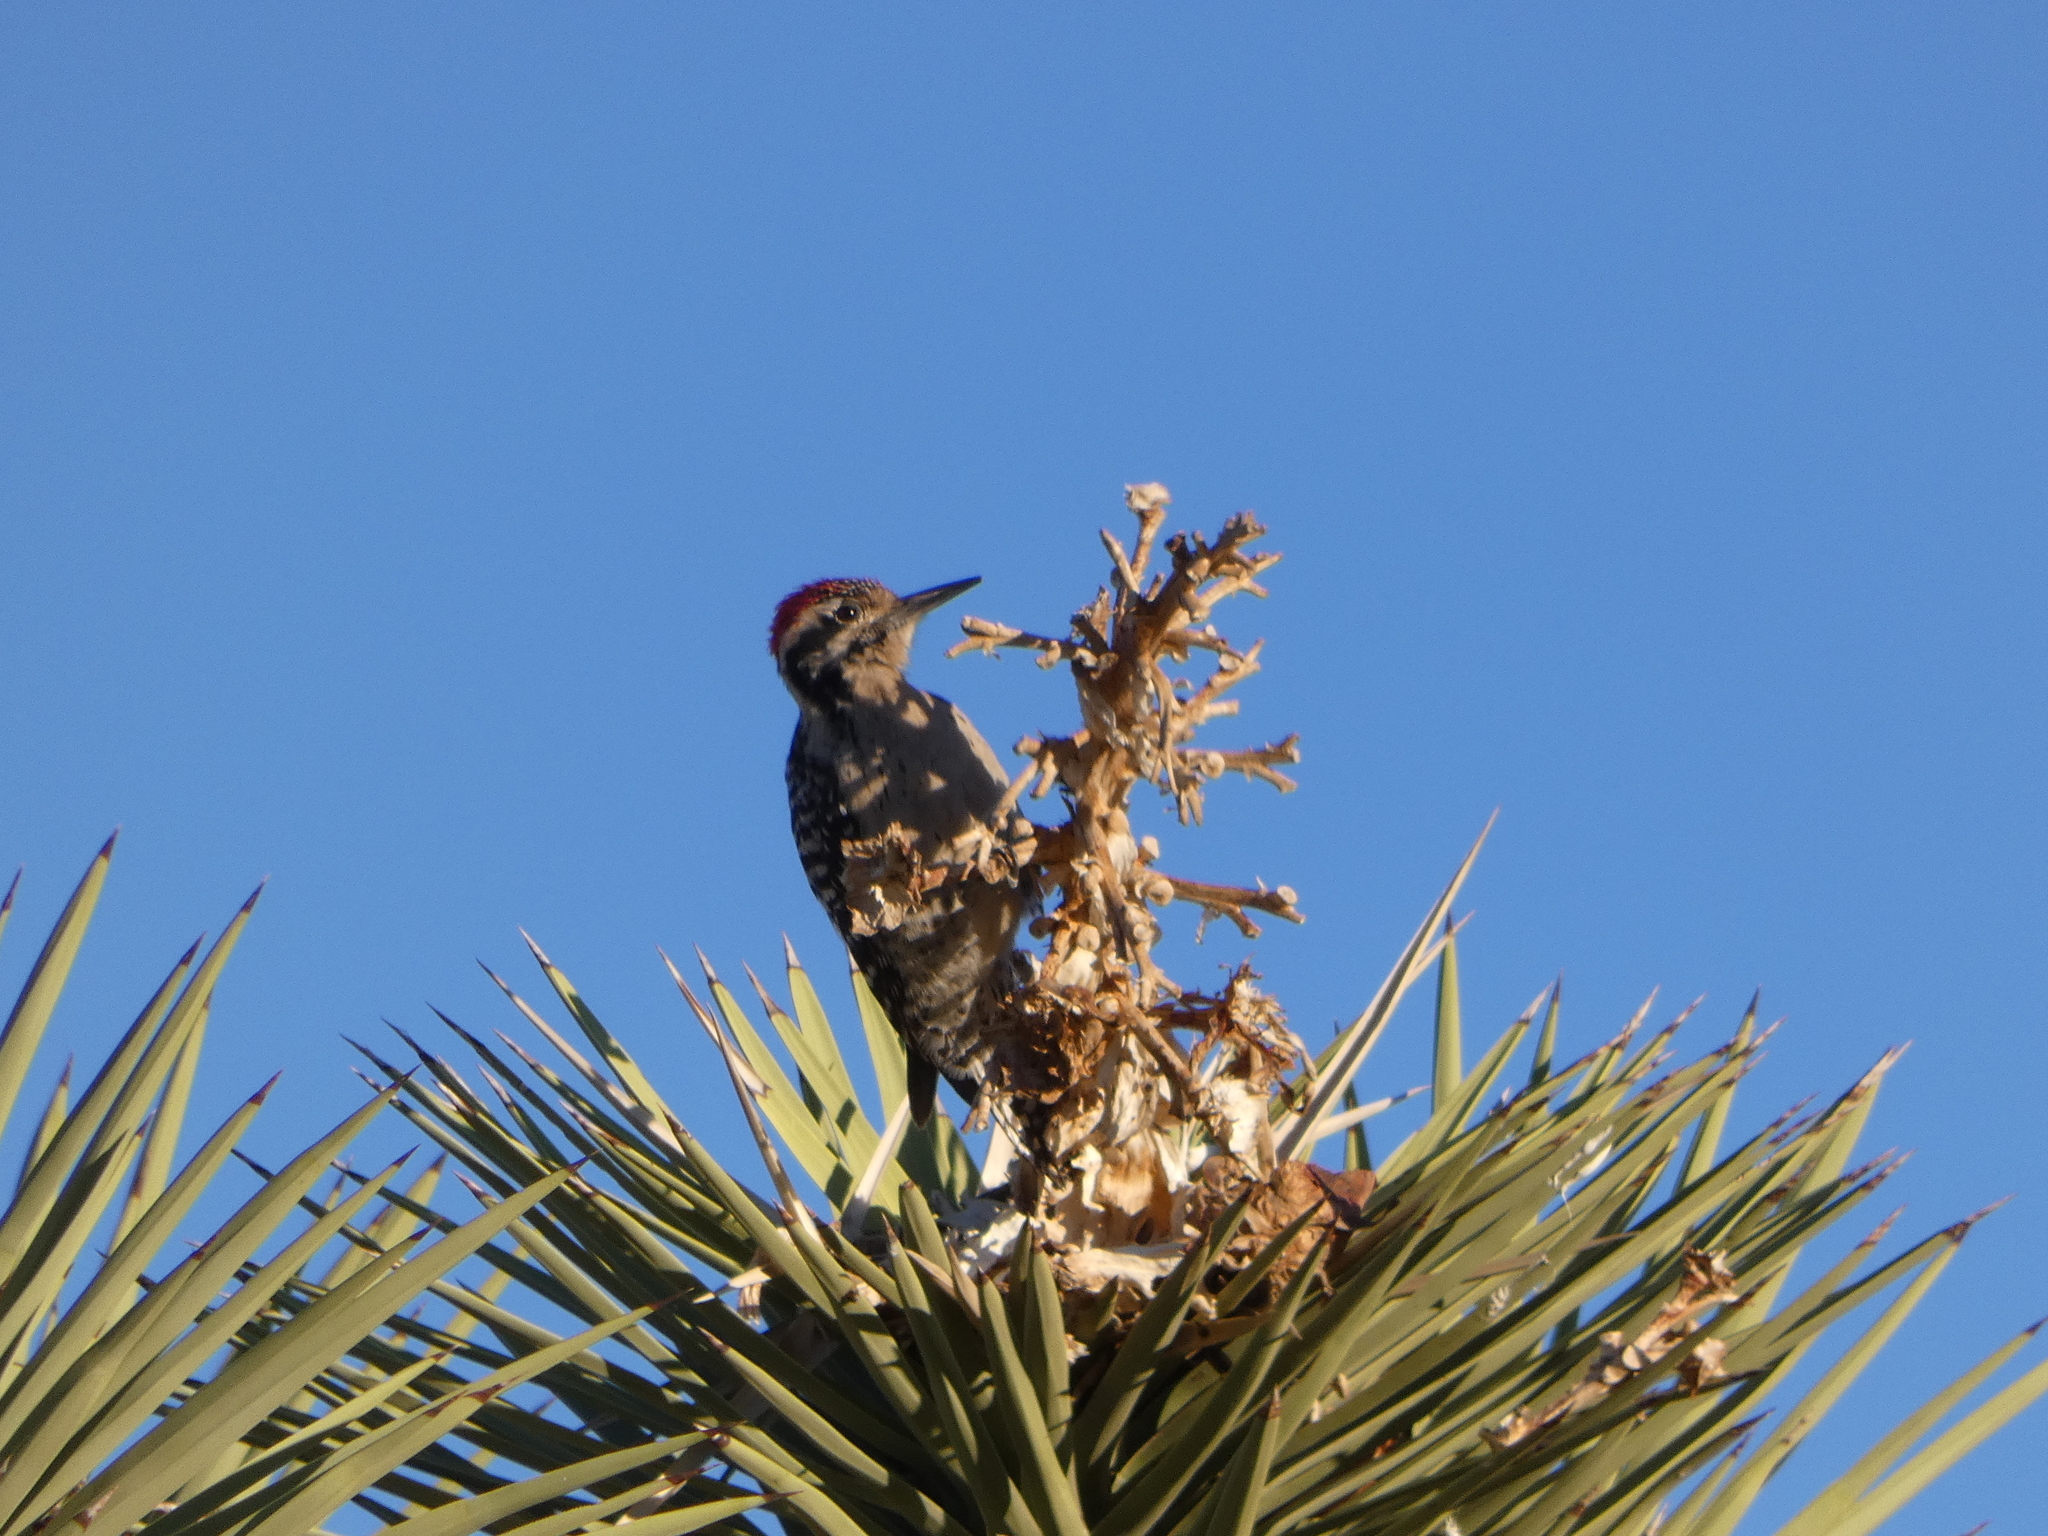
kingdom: Animalia
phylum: Chordata
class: Aves
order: Piciformes
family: Picidae
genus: Dryobates
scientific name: Dryobates scalaris
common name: Ladder-backed woodpecker
